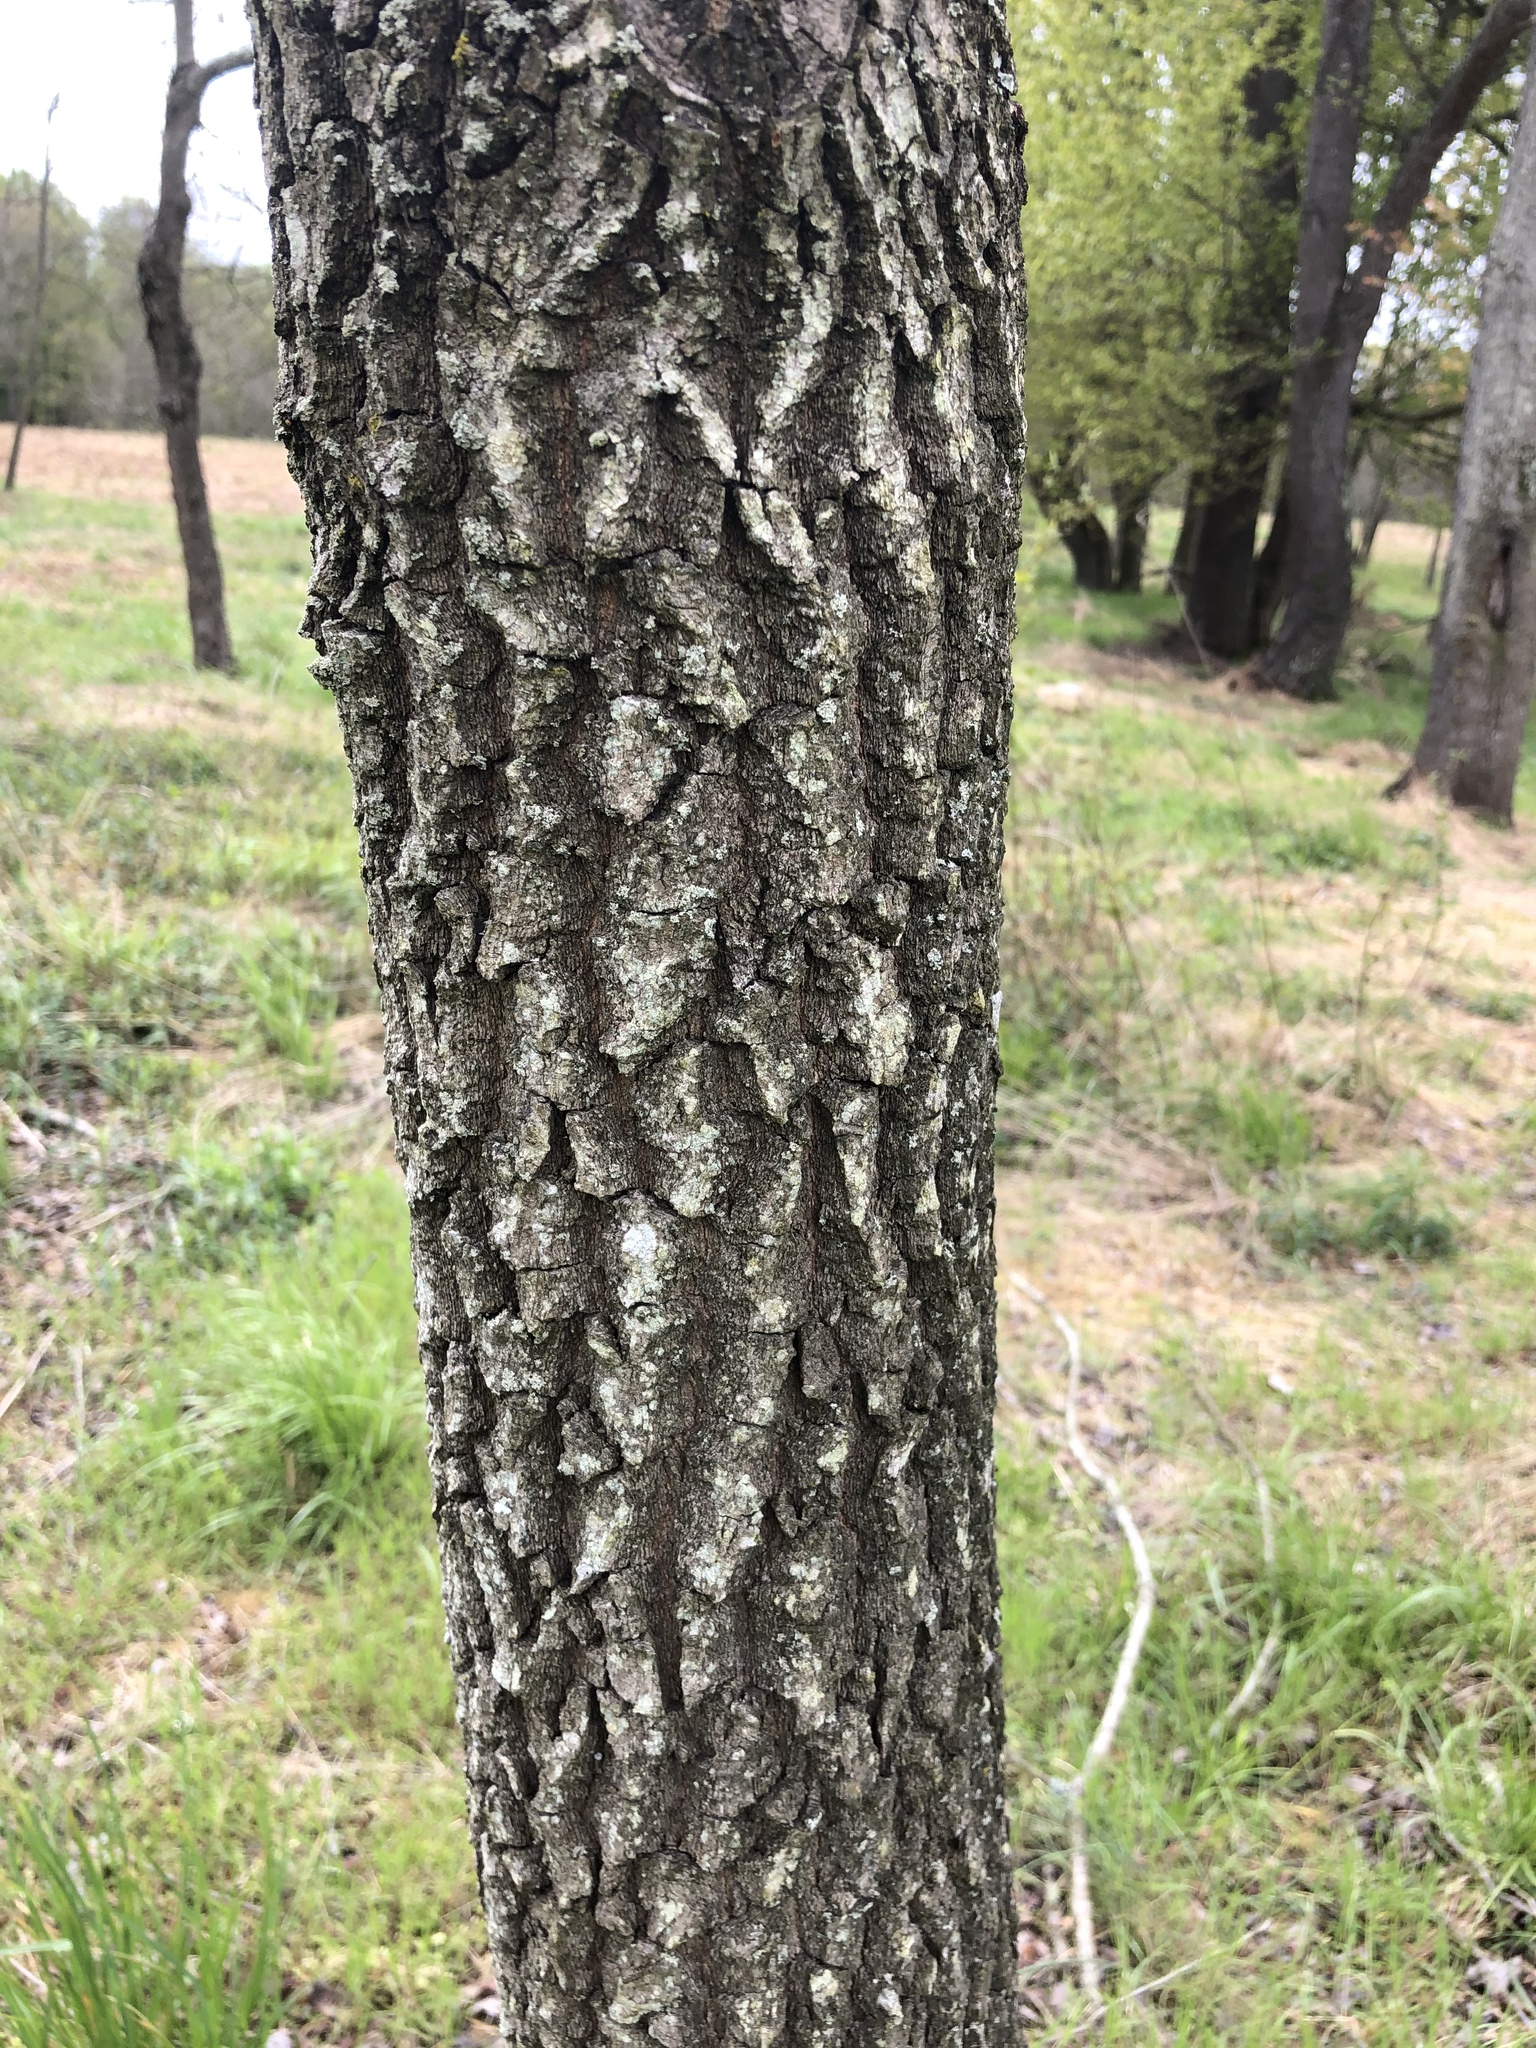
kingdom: Plantae
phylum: Tracheophyta
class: Magnoliopsida
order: Ericales
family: Ebenaceae
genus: Diospyros
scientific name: Diospyros virginiana
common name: Persimmon
